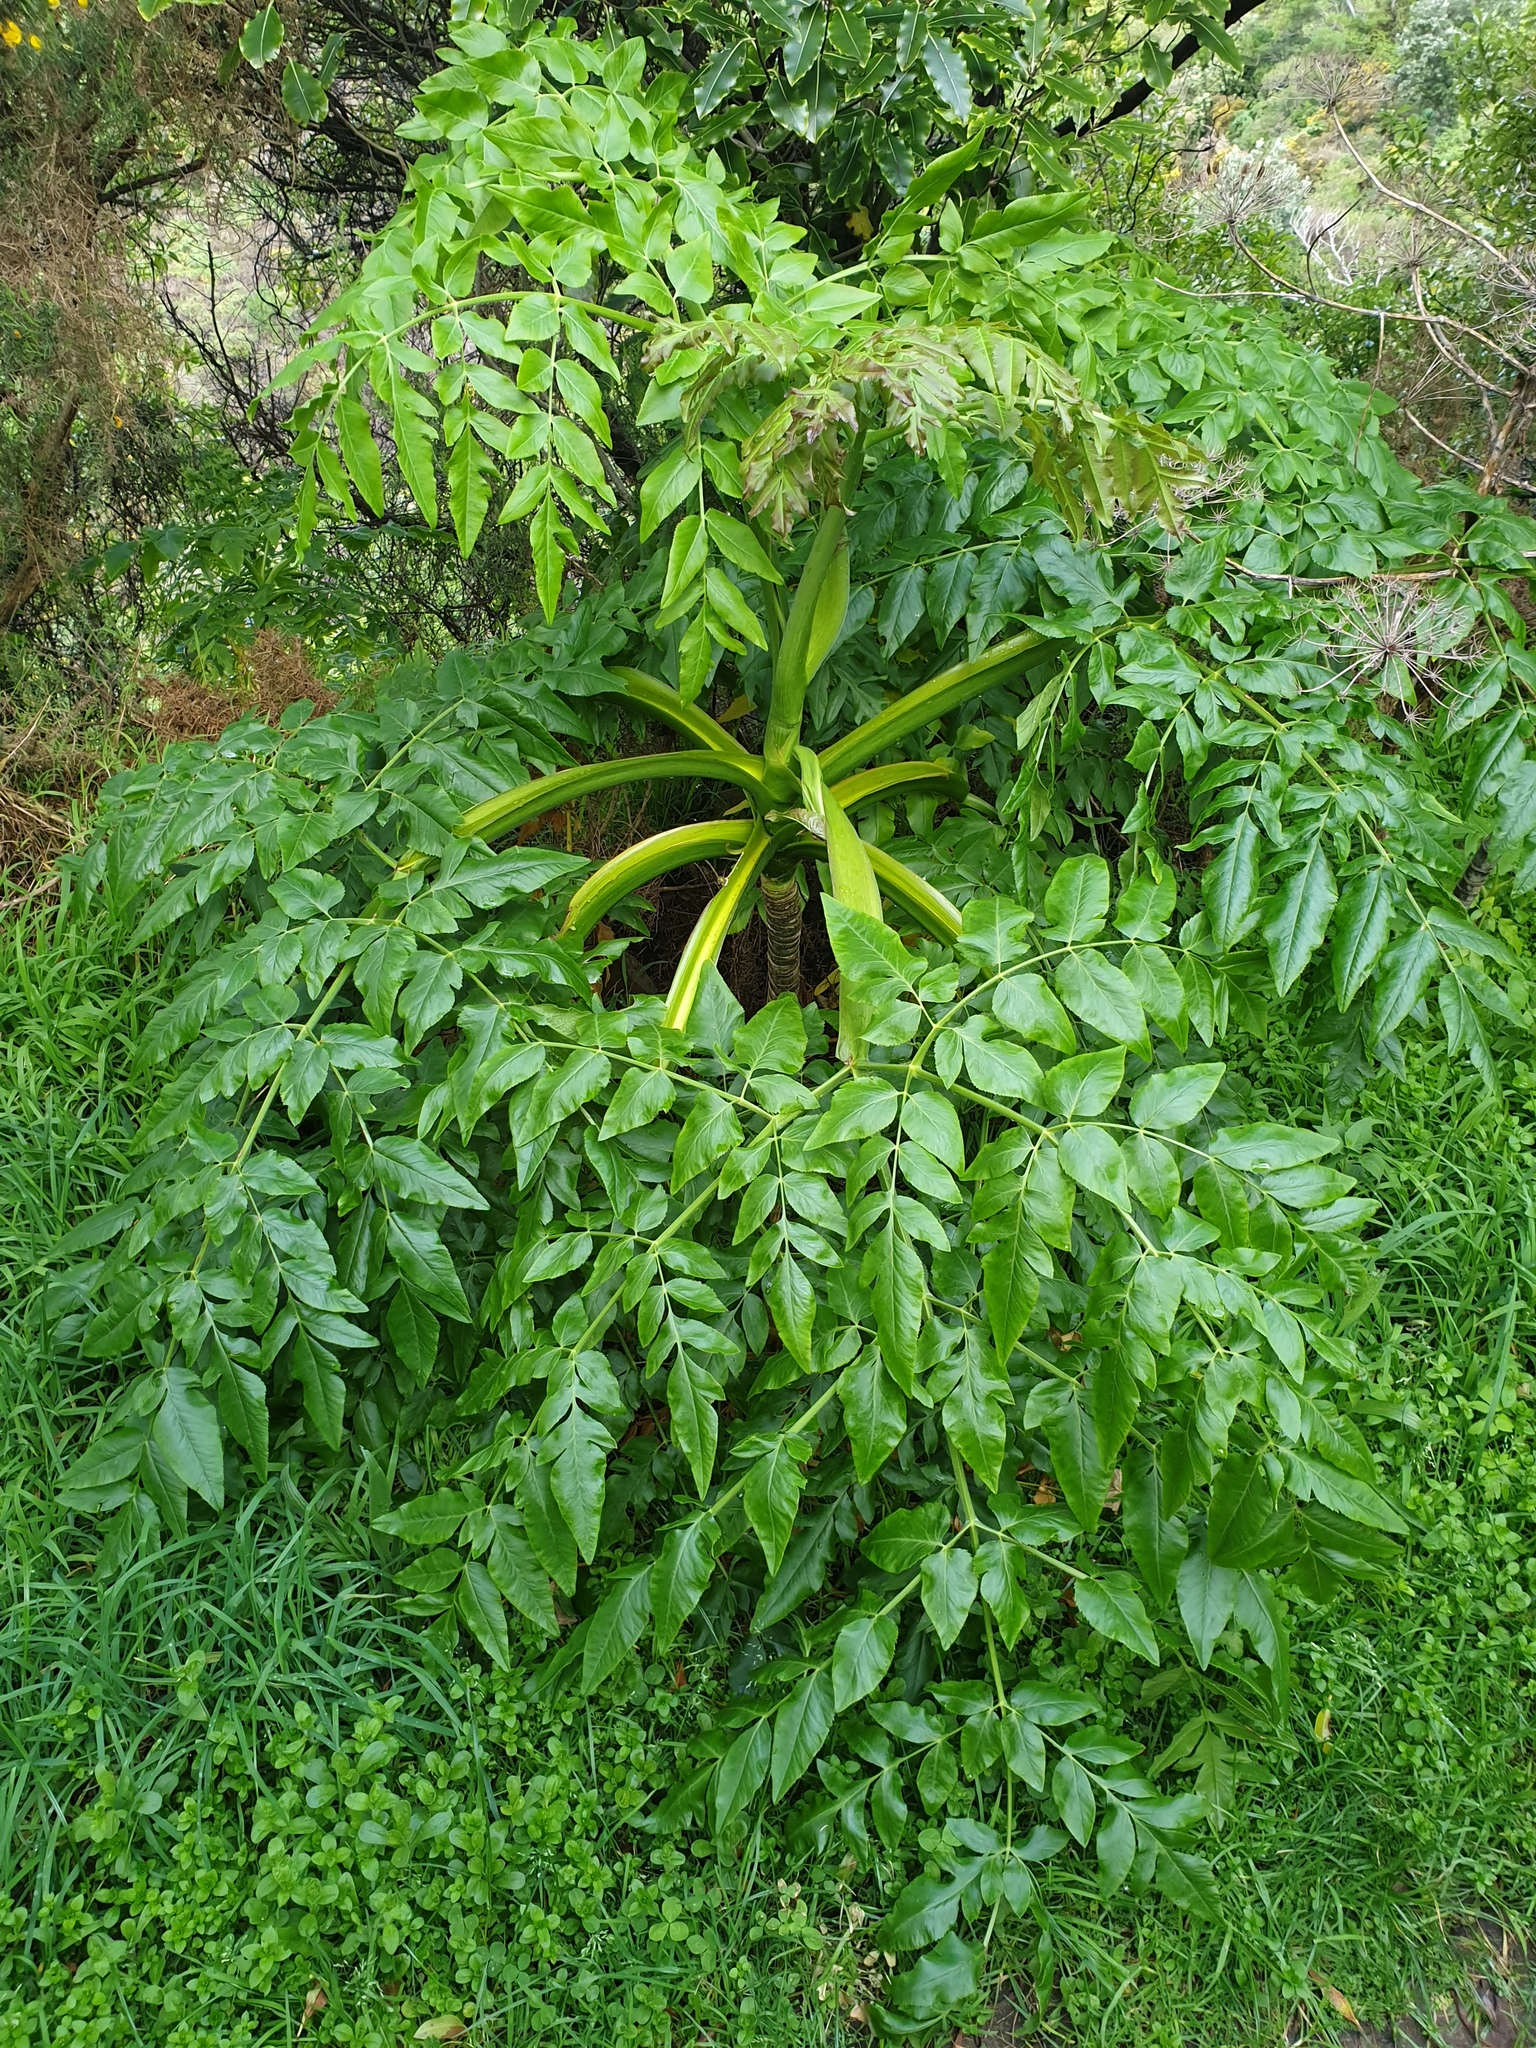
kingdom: Plantae
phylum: Tracheophyta
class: Magnoliopsida
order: Apiales
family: Apiaceae
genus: Daucus
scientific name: Daucus decipiens
